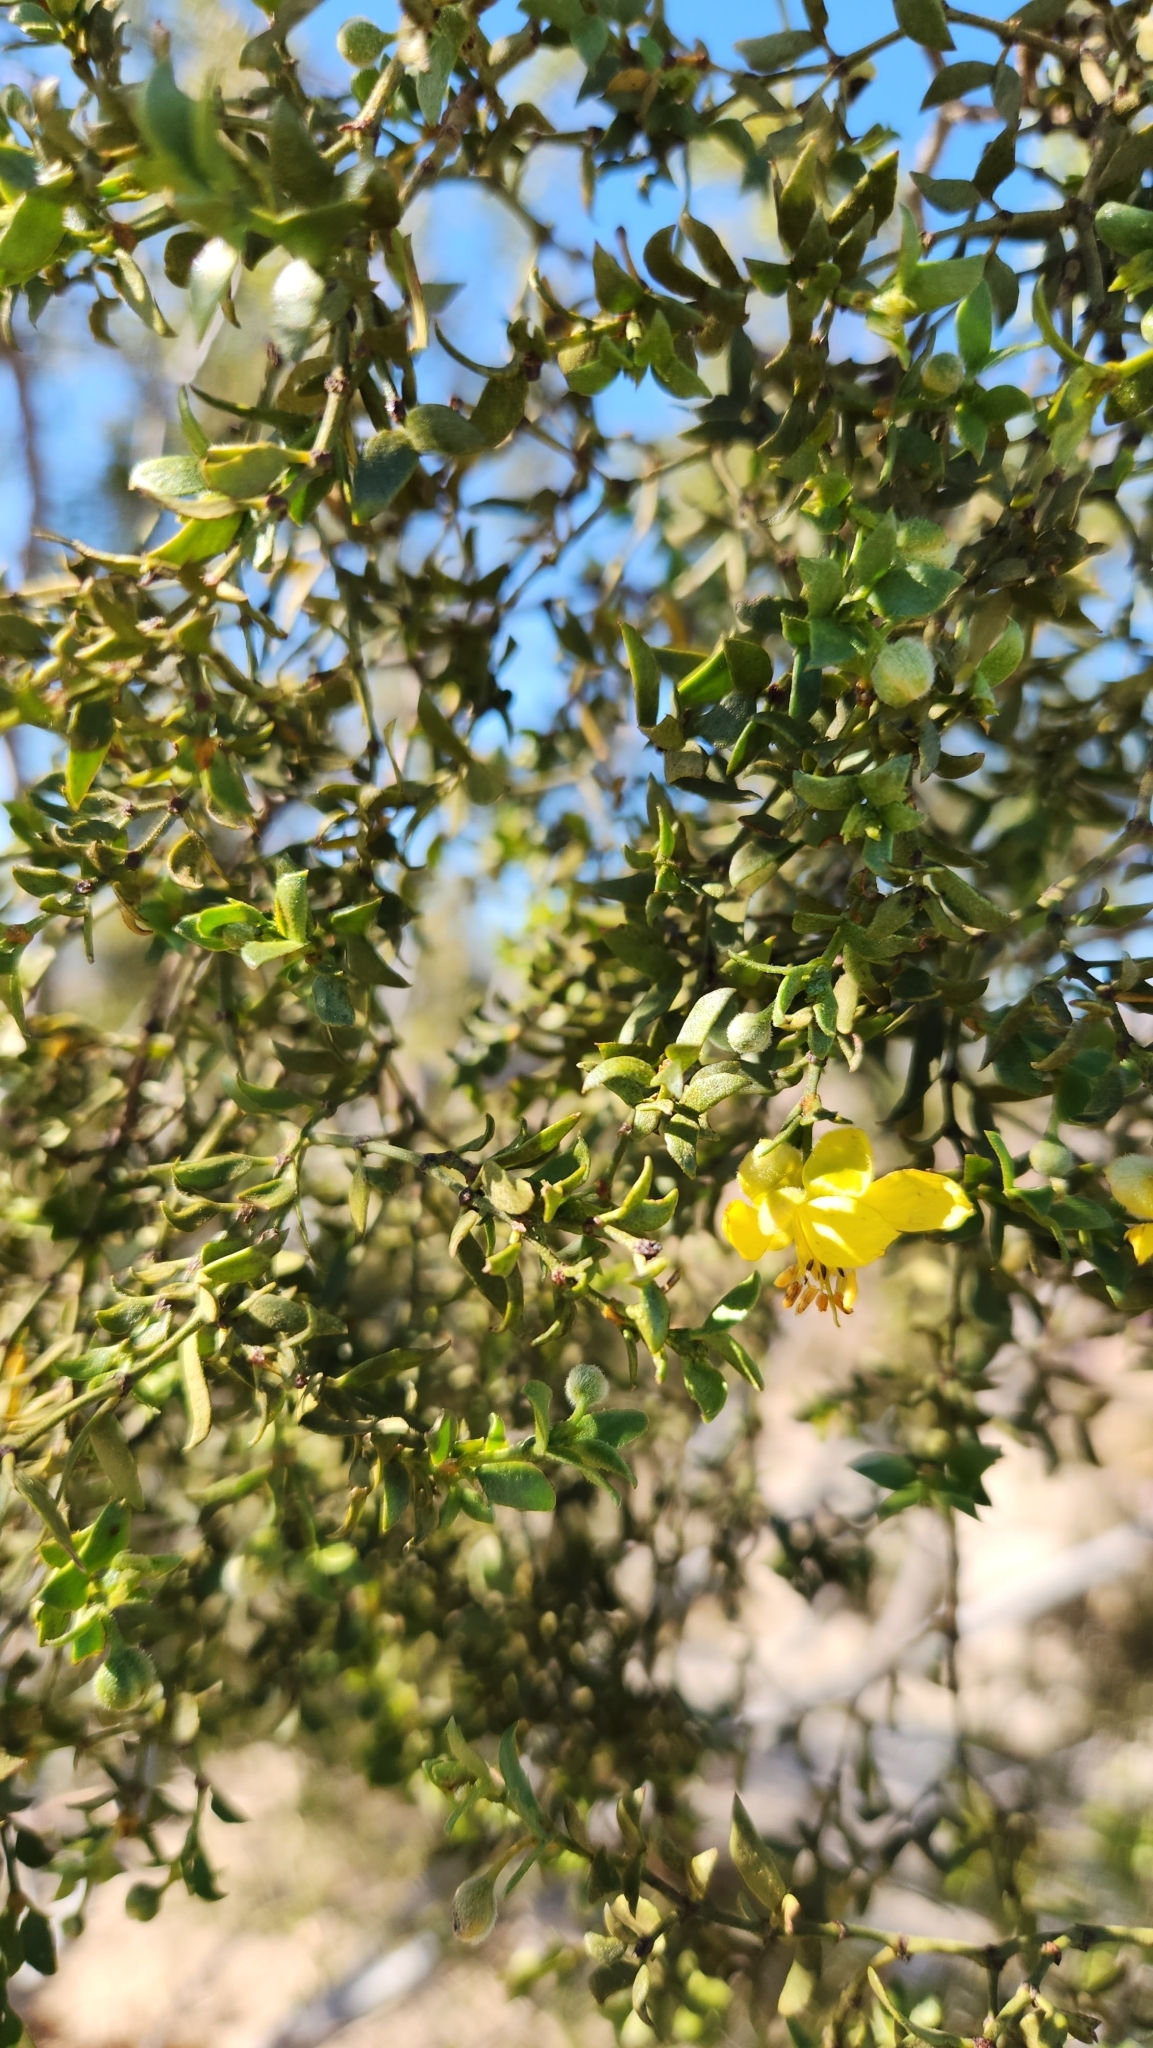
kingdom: Plantae
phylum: Tracheophyta
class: Magnoliopsida
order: Zygophyllales
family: Zygophyllaceae
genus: Larrea
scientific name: Larrea tridentata
